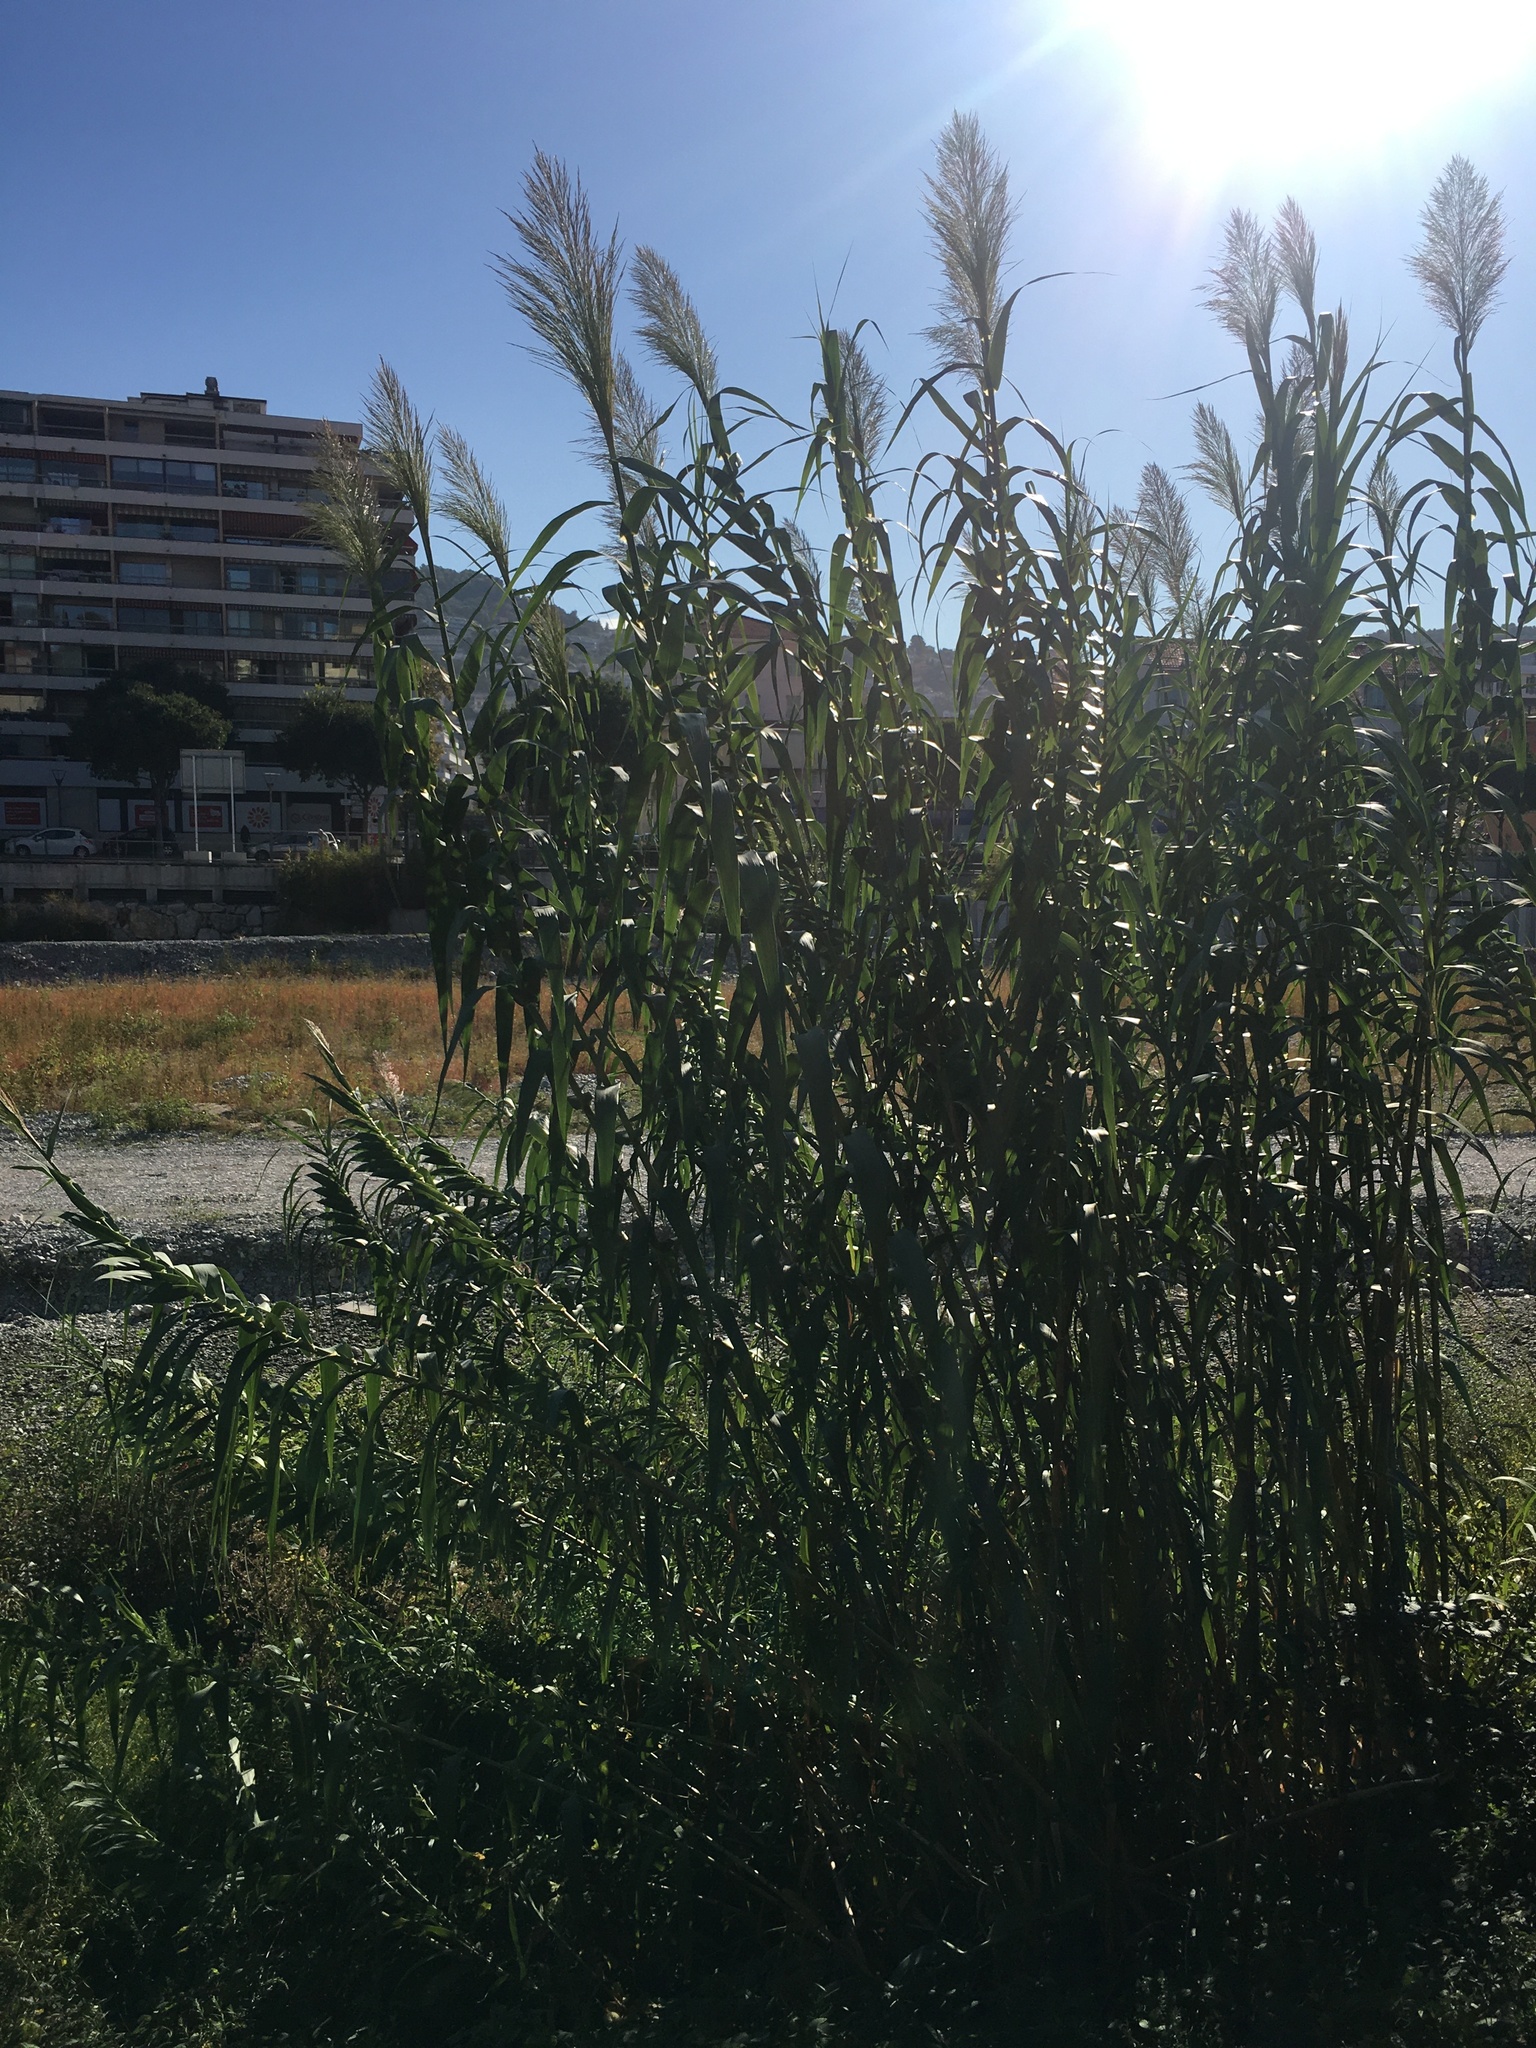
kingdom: Plantae
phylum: Tracheophyta
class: Liliopsida
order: Poales
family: Poaceae
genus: Arundo
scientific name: Arundo donax
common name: Giant reed
